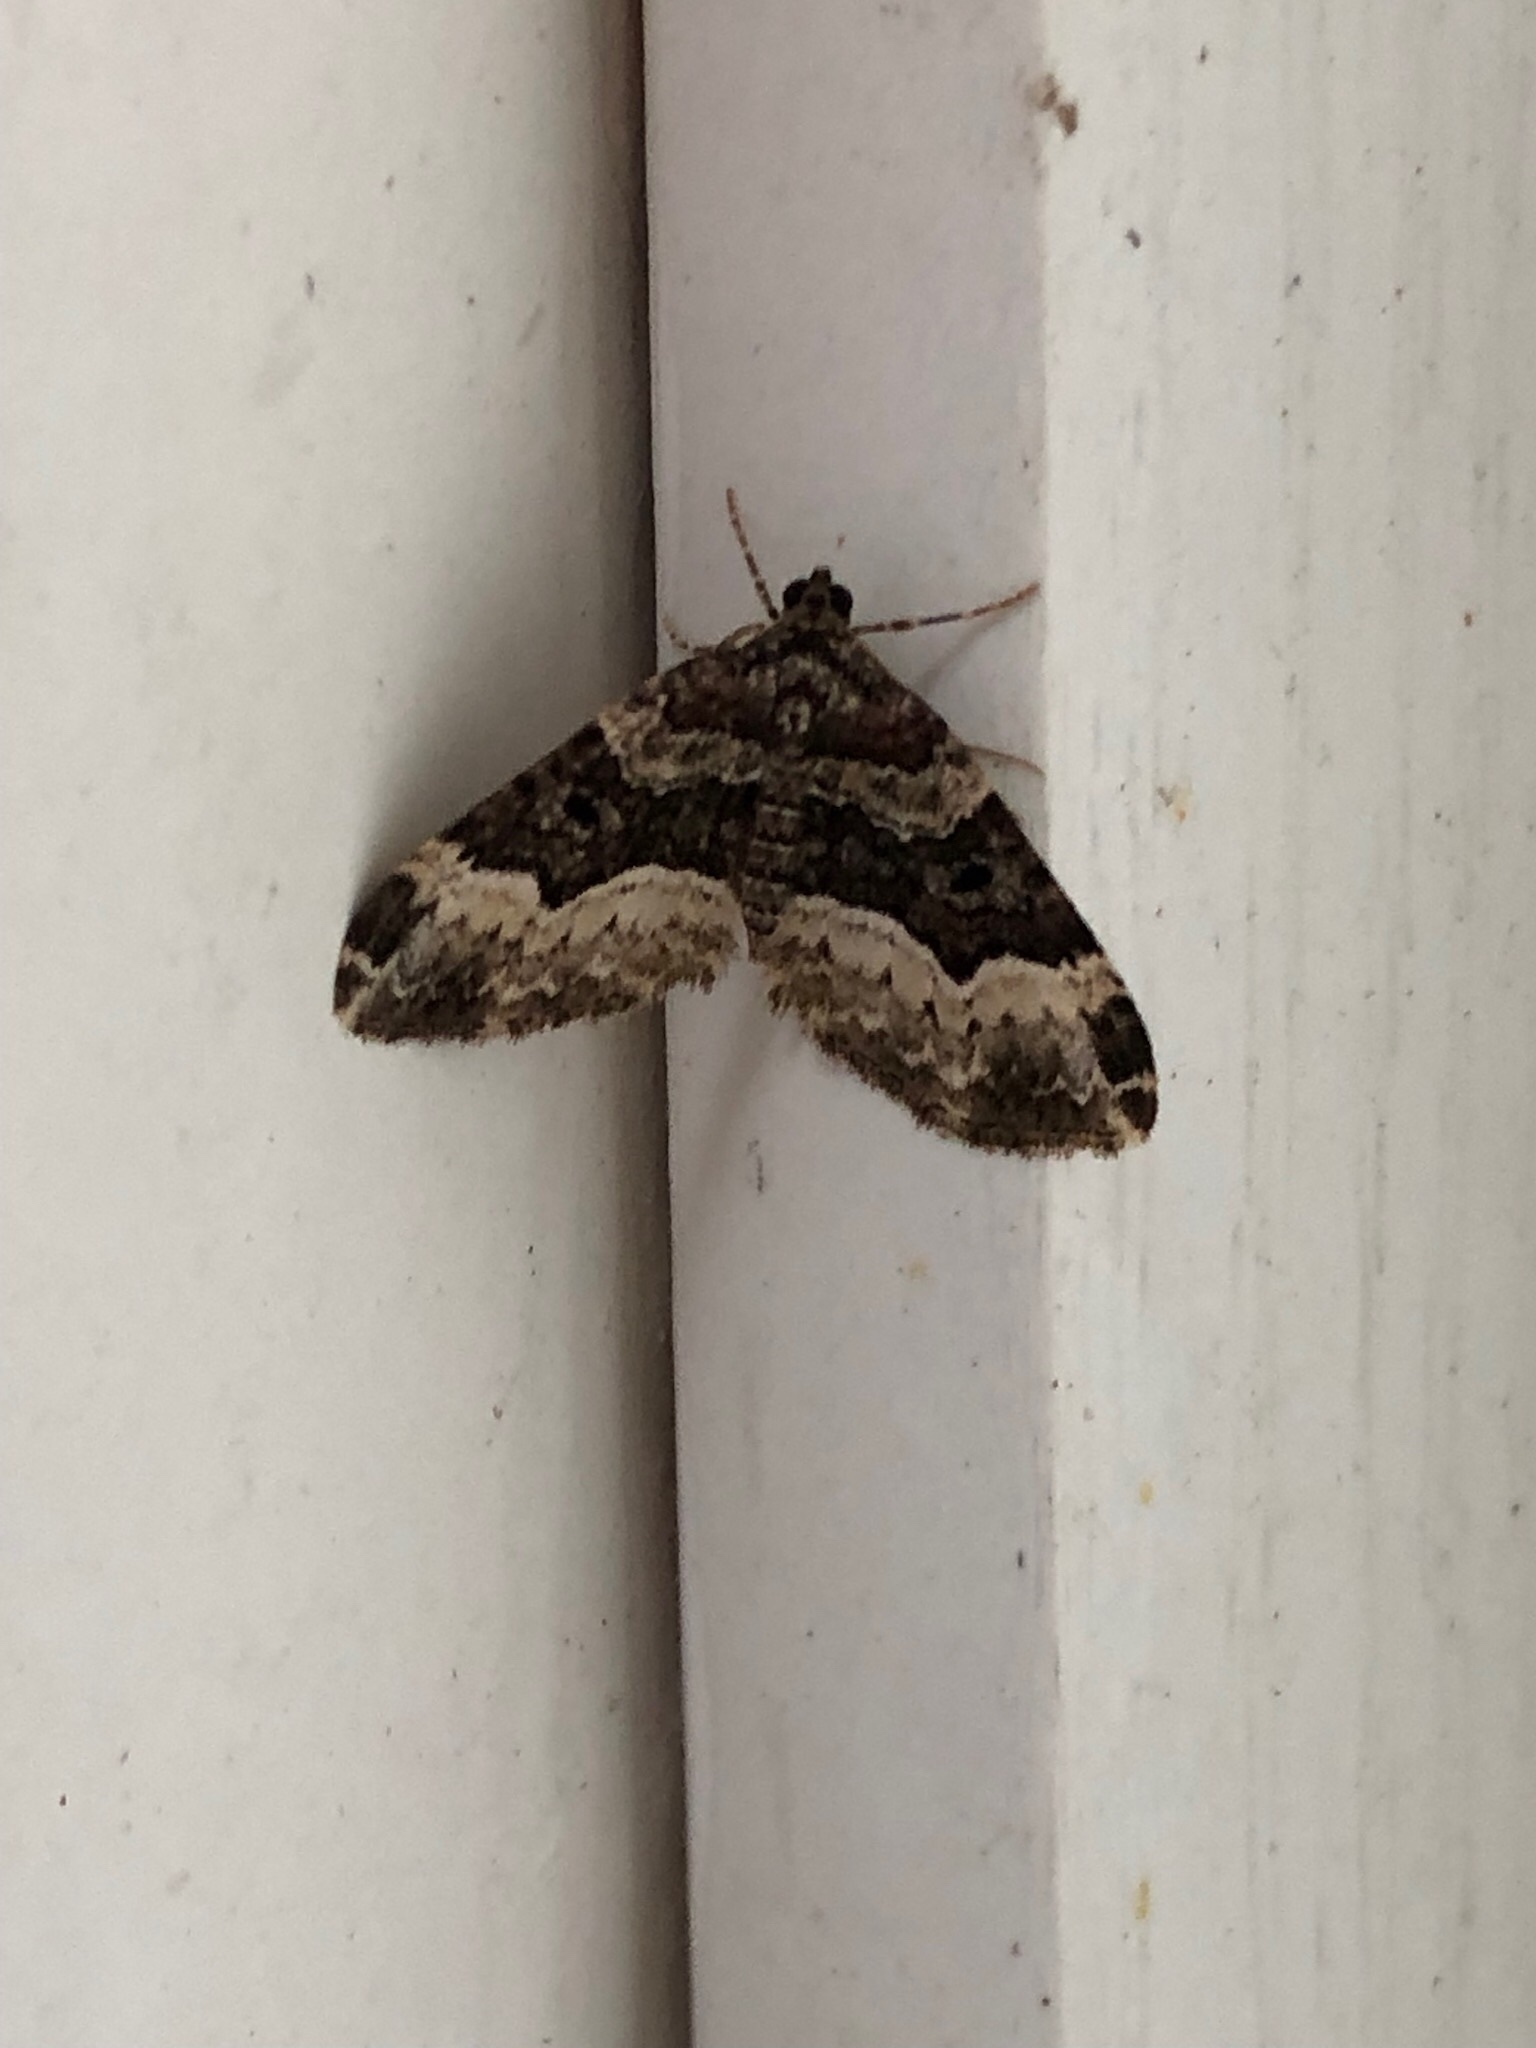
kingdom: Animalia
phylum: Arthropoda
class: Insecta
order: Lepidoptera
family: Geometridae
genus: Xanthorhoe
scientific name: Xanthorhoe lacustrata
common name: Toothed brown carpet
